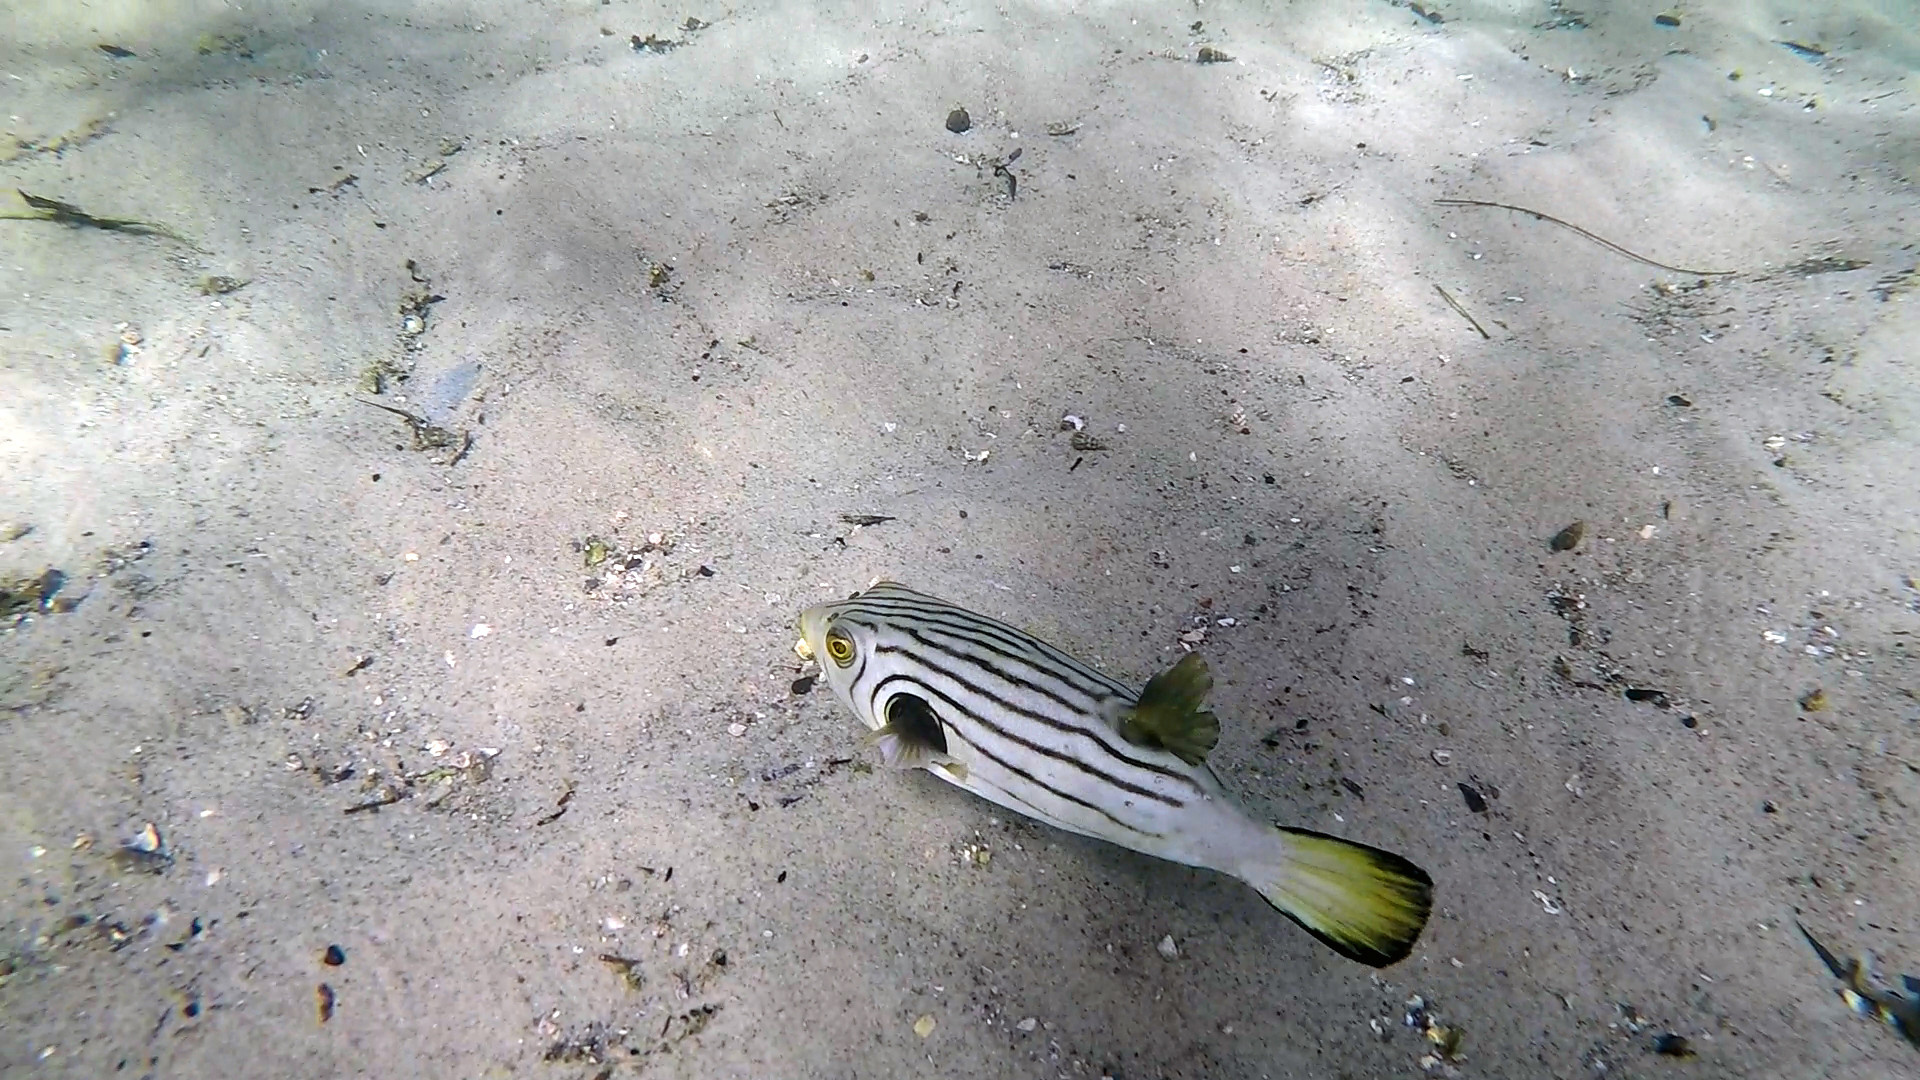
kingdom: Animalia
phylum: Chordata
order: Tetraodontiformes
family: Tetraodontidae
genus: Arothron
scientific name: Arothron manilensis
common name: Narrow-lined puffer
